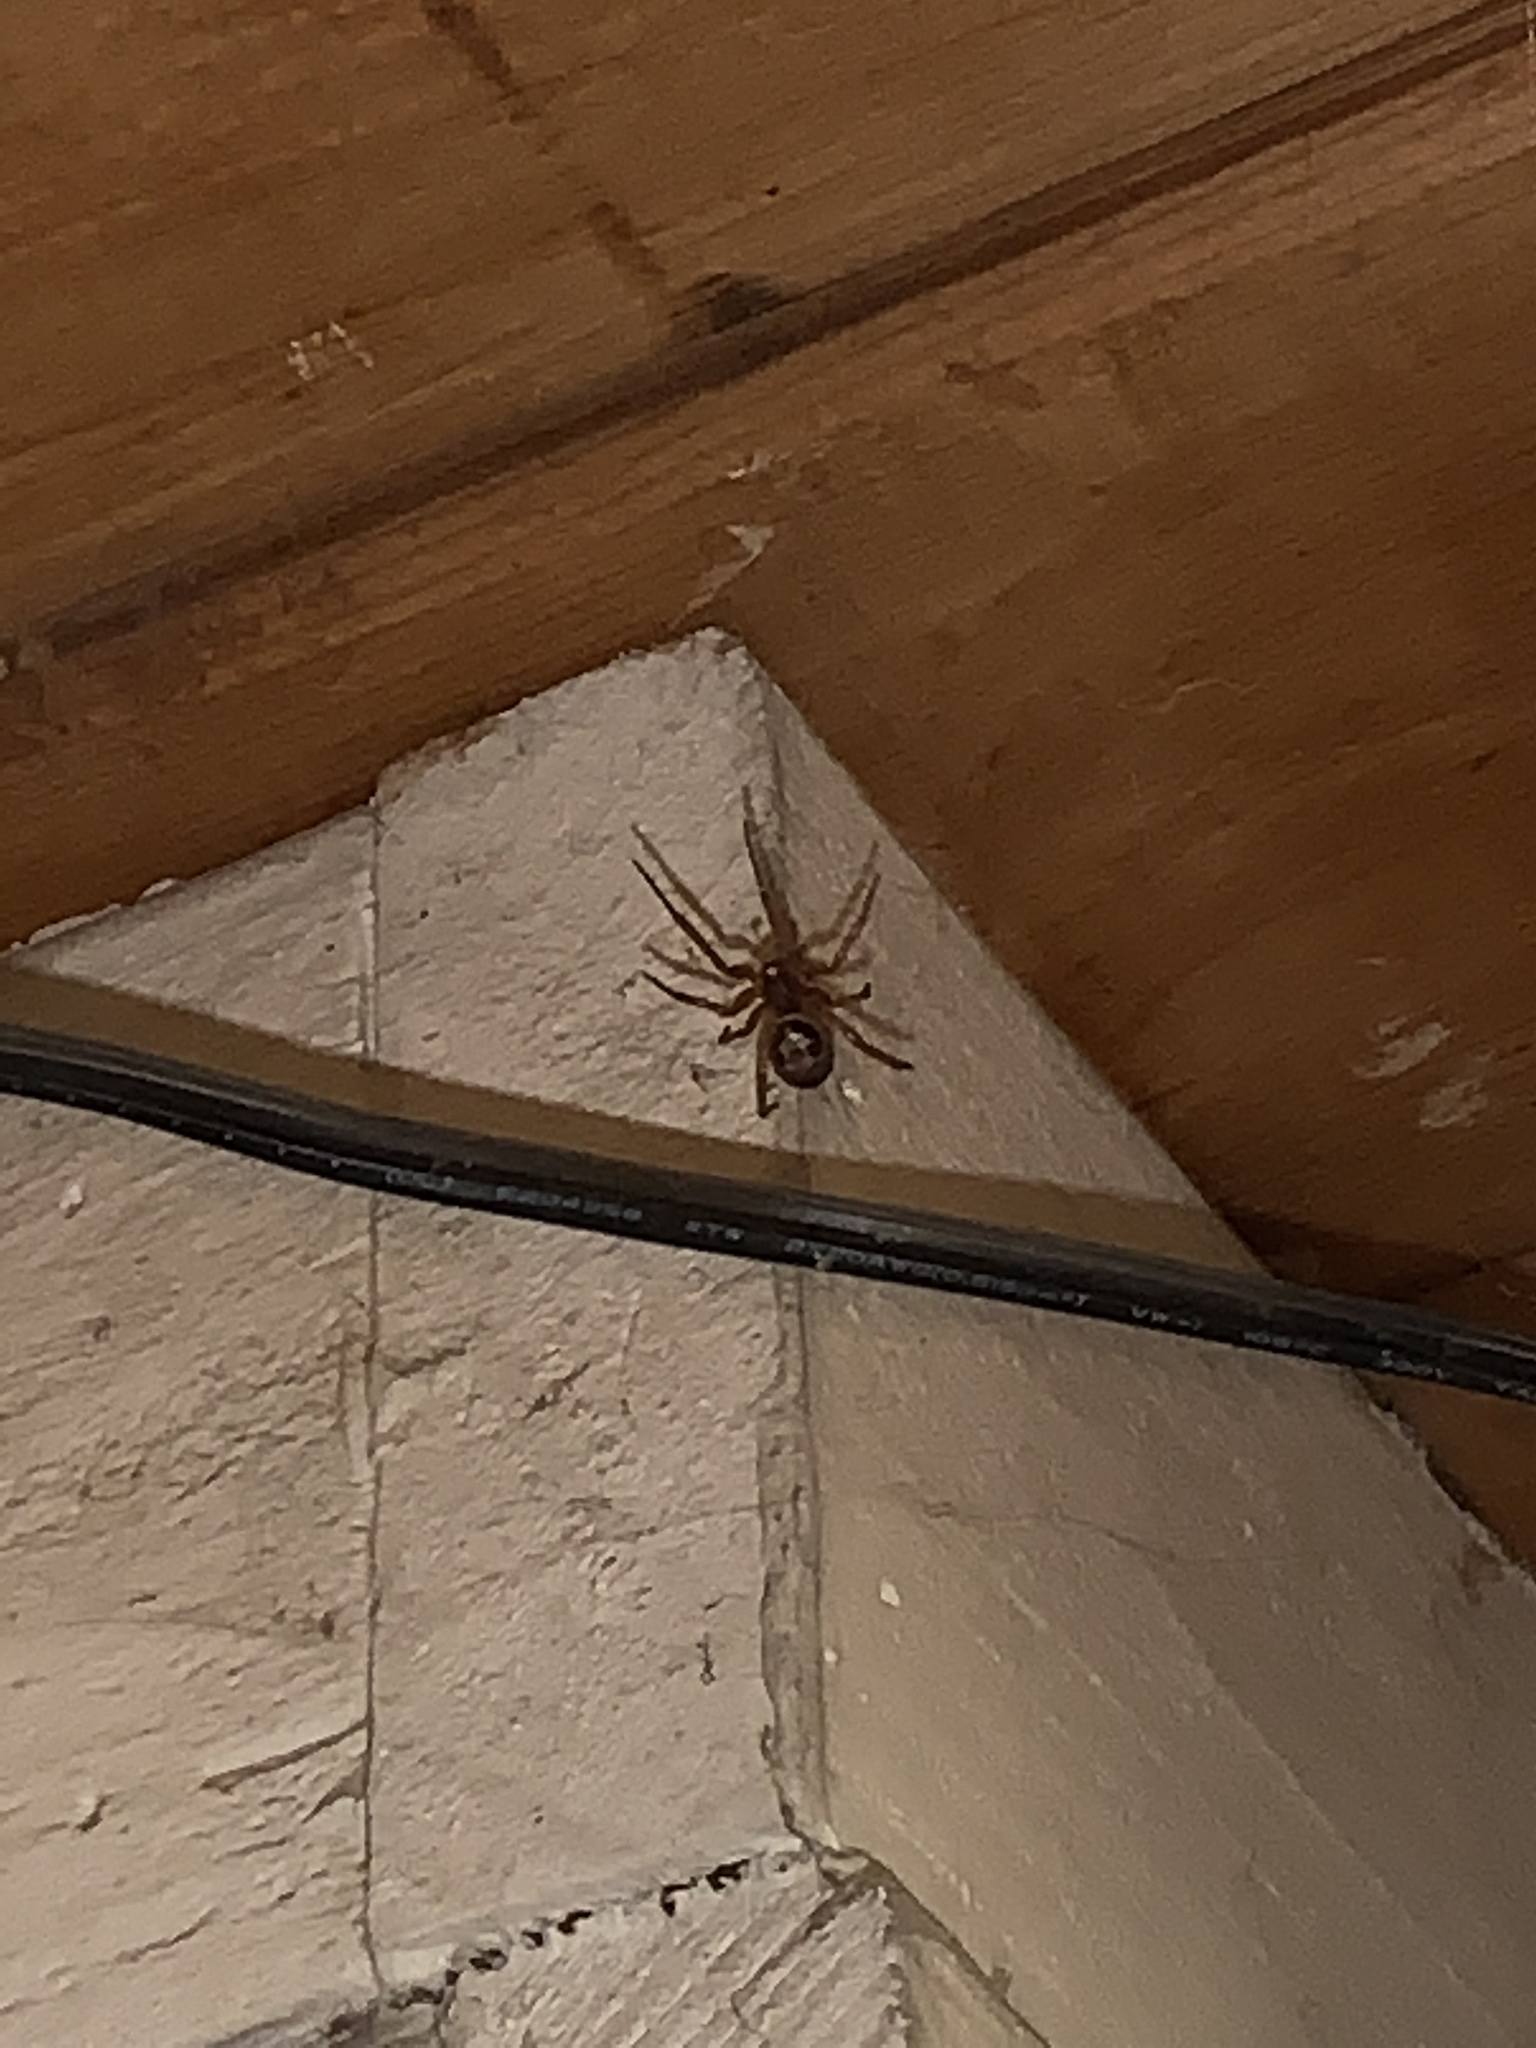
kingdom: Animalia
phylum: Arthropoda
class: Arachnida
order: Araneae
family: Theridiidae
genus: Steatoda
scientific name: Steatoda nobilis
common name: Cobweb weaver
